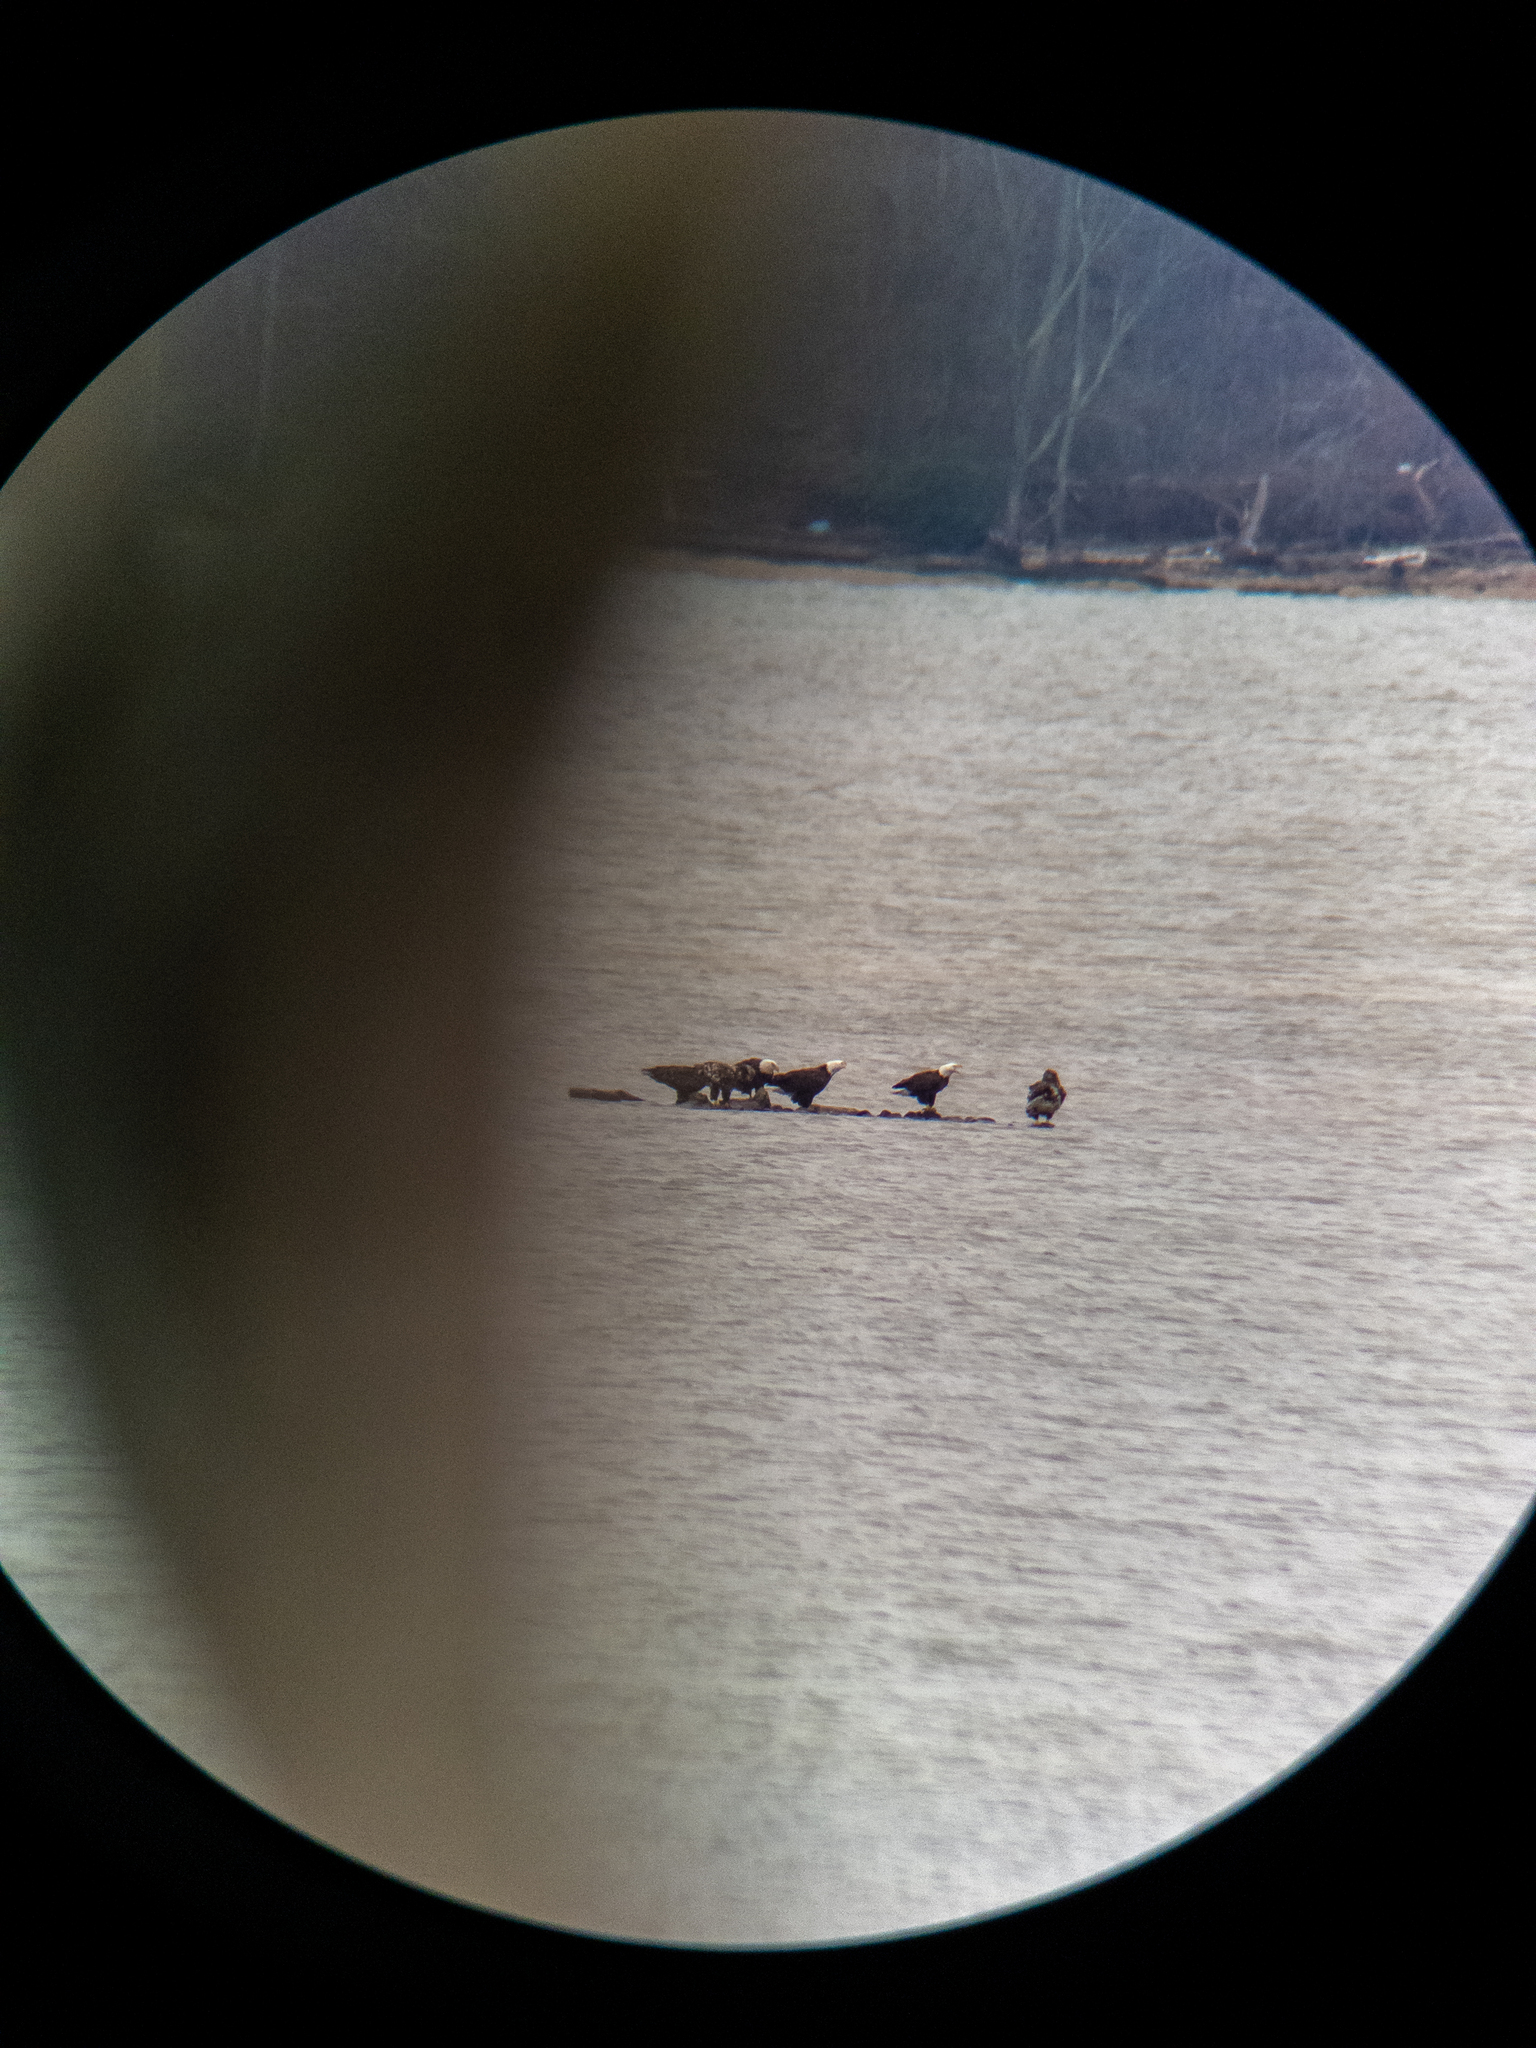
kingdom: Animalia
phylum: Chordata
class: Aves
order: Accipitriformes
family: Accipitridae
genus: Haliaeetus
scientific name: Haliaeetus leucocephalus
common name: Bald eagle
